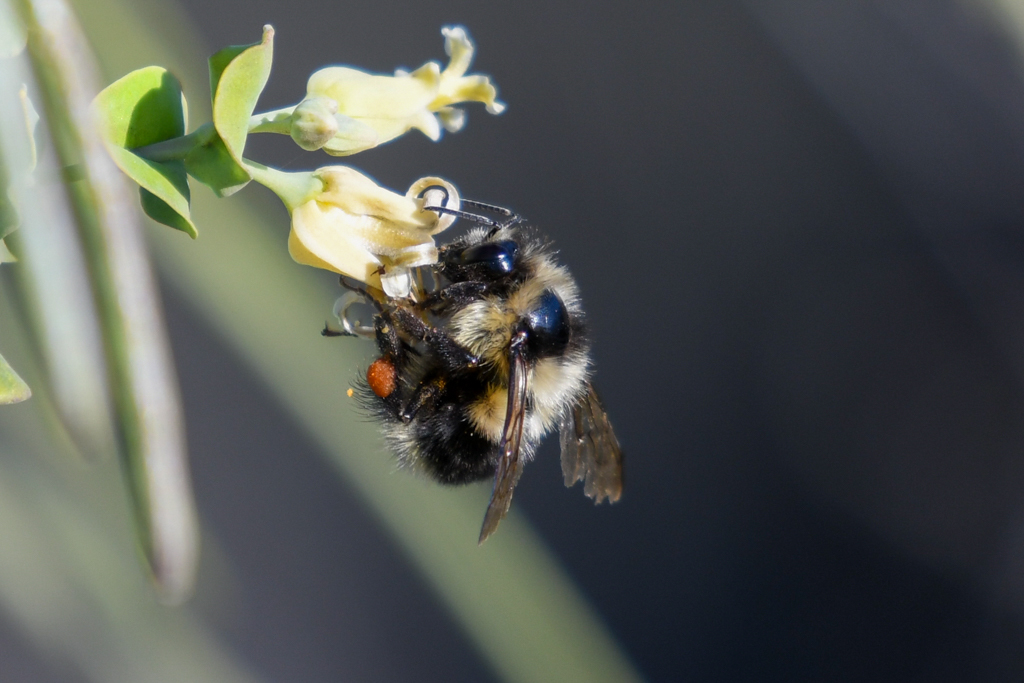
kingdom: Animalia
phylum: Arthropoda
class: Insecta
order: Hymenoptera
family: Apidae
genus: Bombus
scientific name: Bombus melanopygus
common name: Black tail bumble bee
